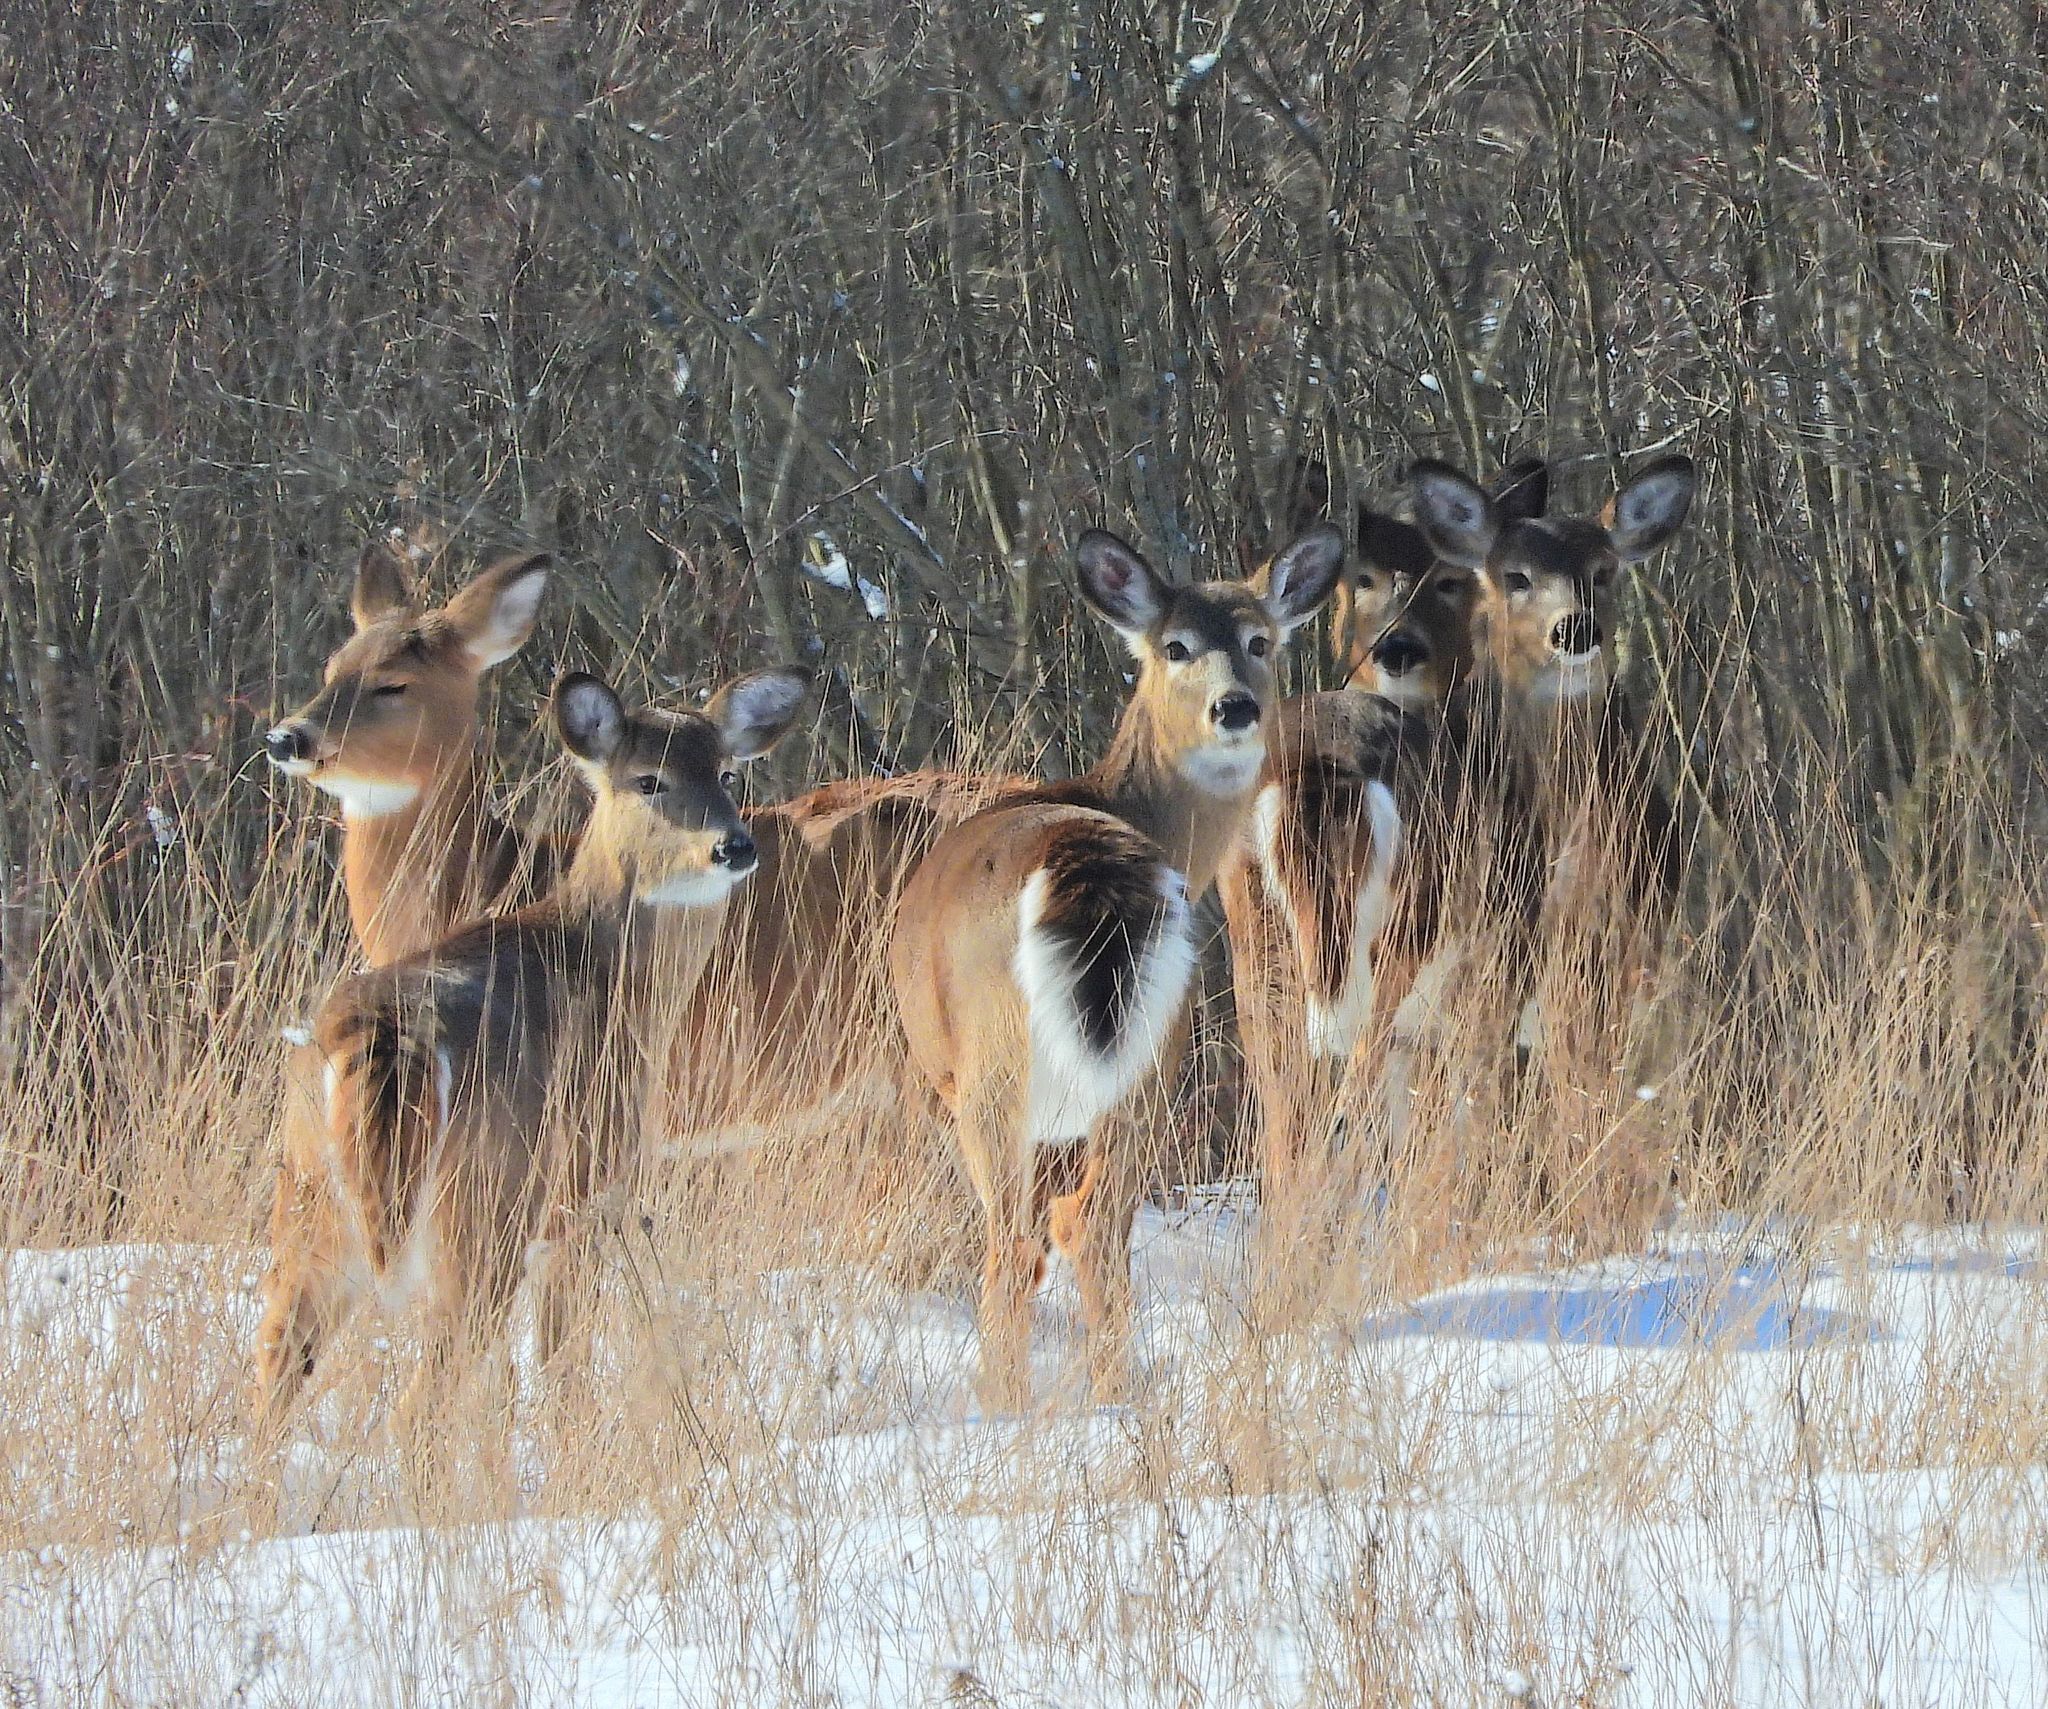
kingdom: Animalia
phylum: Chordata
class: Mammalia
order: Artiodactyla
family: Cervidae
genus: Odocoileus
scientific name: Odocoileus virginianus
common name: White-tailed deer
